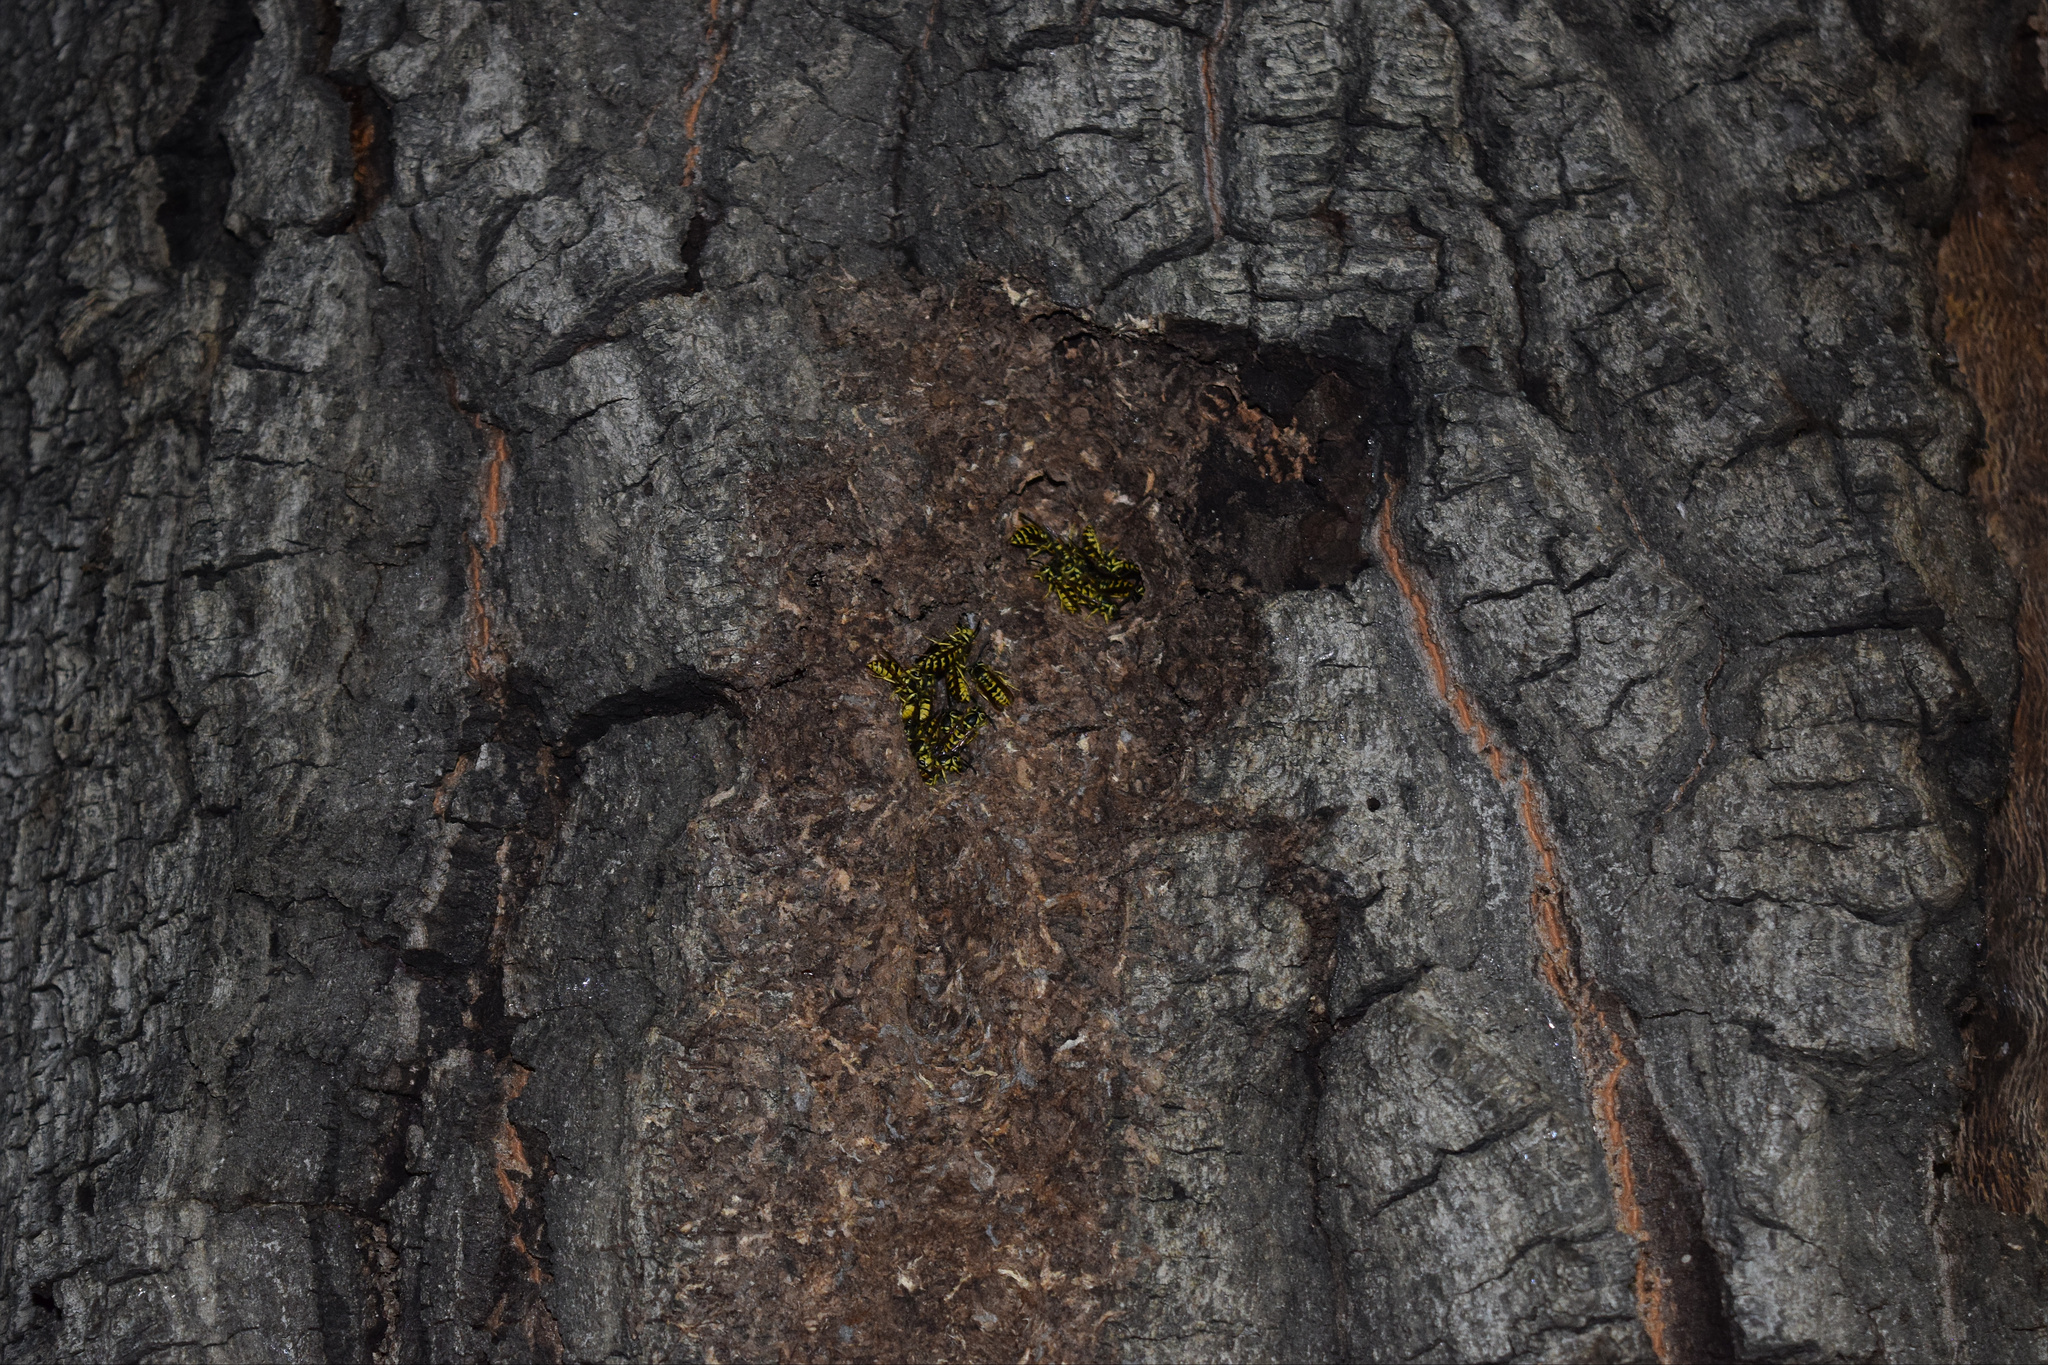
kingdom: Animalia
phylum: Arthropoda
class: Insecta
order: Hymenoptera
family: Vespidae
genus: Vespula
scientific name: Vespula pensylvanica
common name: Western yellowjacket
